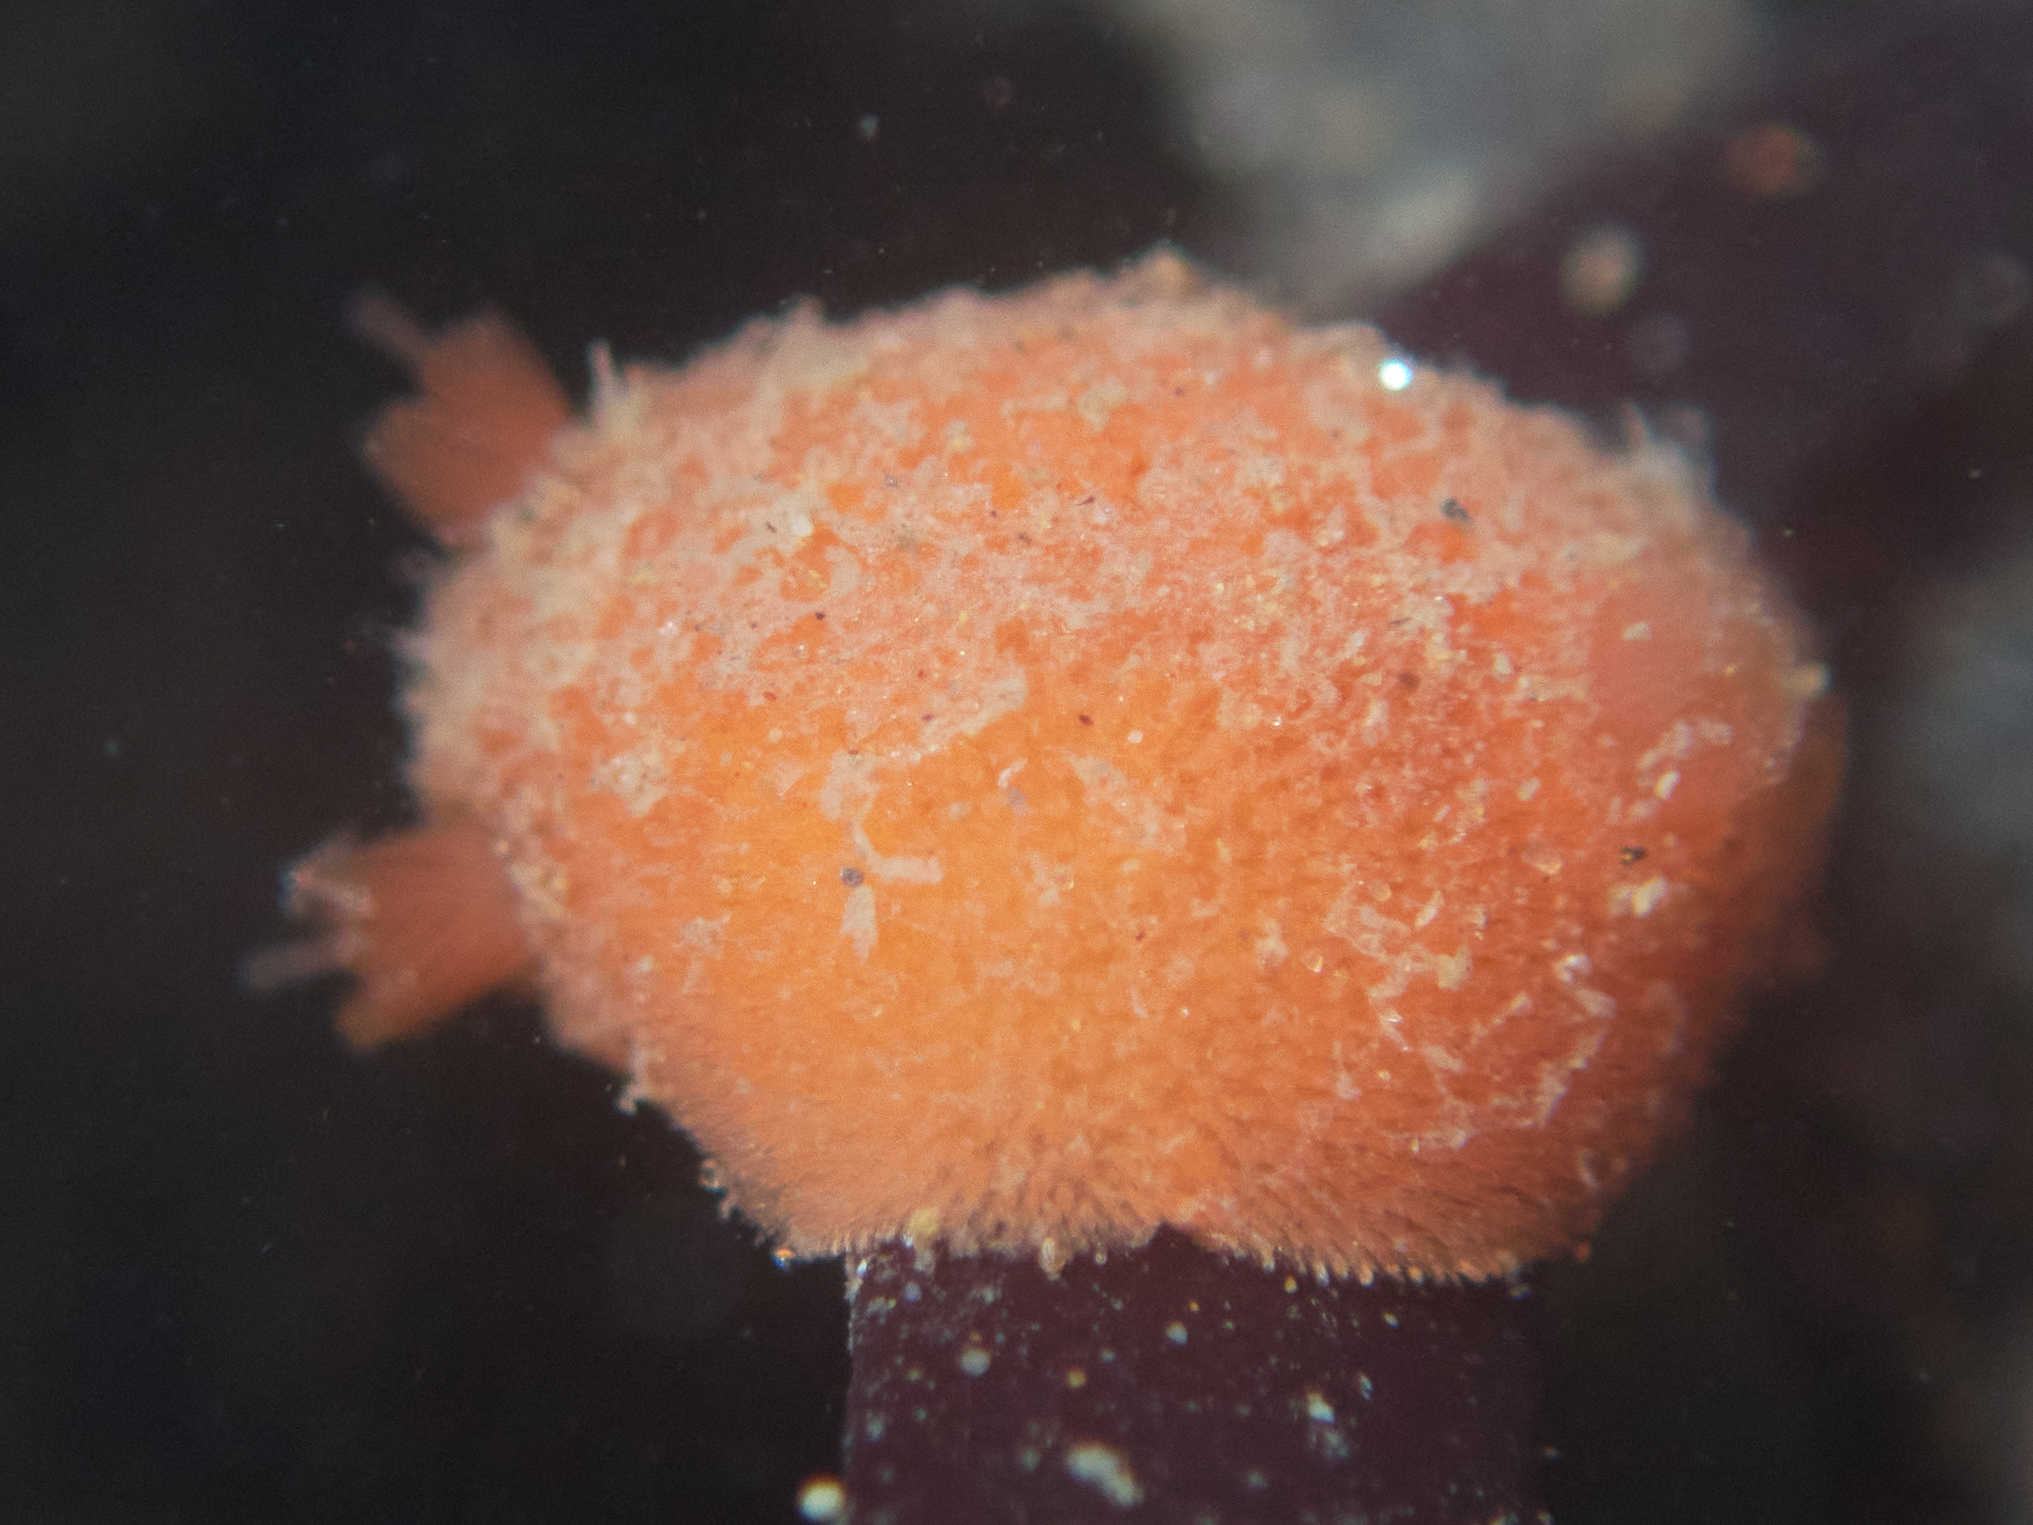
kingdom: Animalia
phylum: Mollusca
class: Gastropoda
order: Nudibranchia
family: Discodorididae
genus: Rostanga
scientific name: Rostanga pulchra
